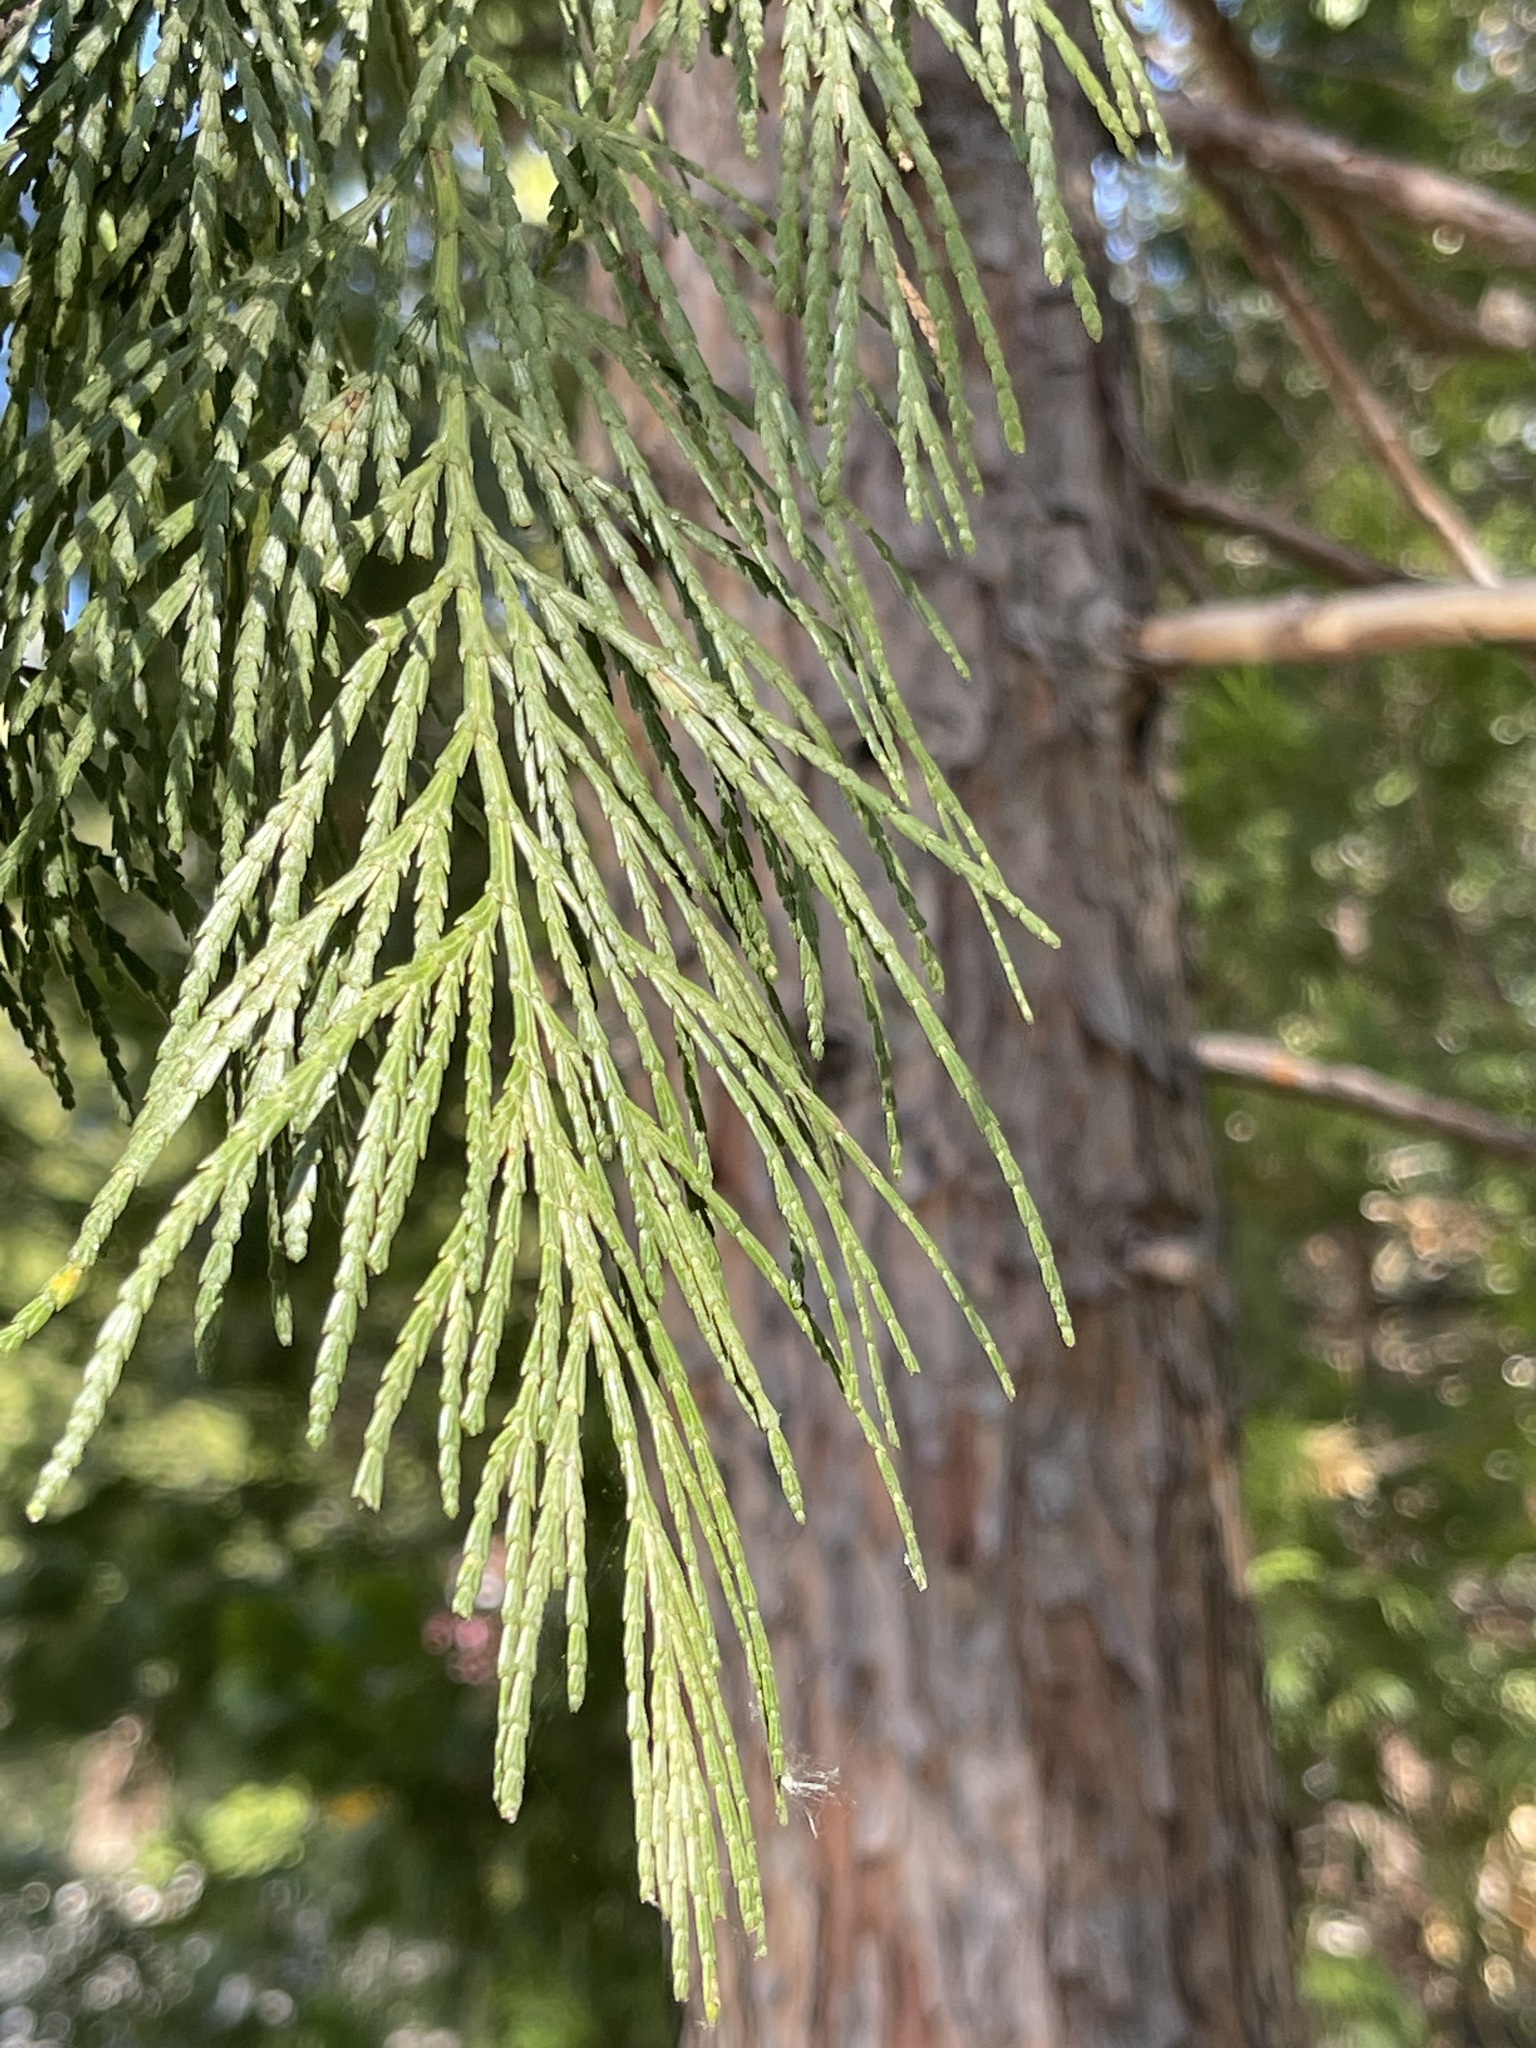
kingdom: Plantae
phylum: Tracheophyta
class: Pinopsida
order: Pinales
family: Cupressaceae
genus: Calocedrus
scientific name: Calocedrus decurrens
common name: Californian incense-cedar
